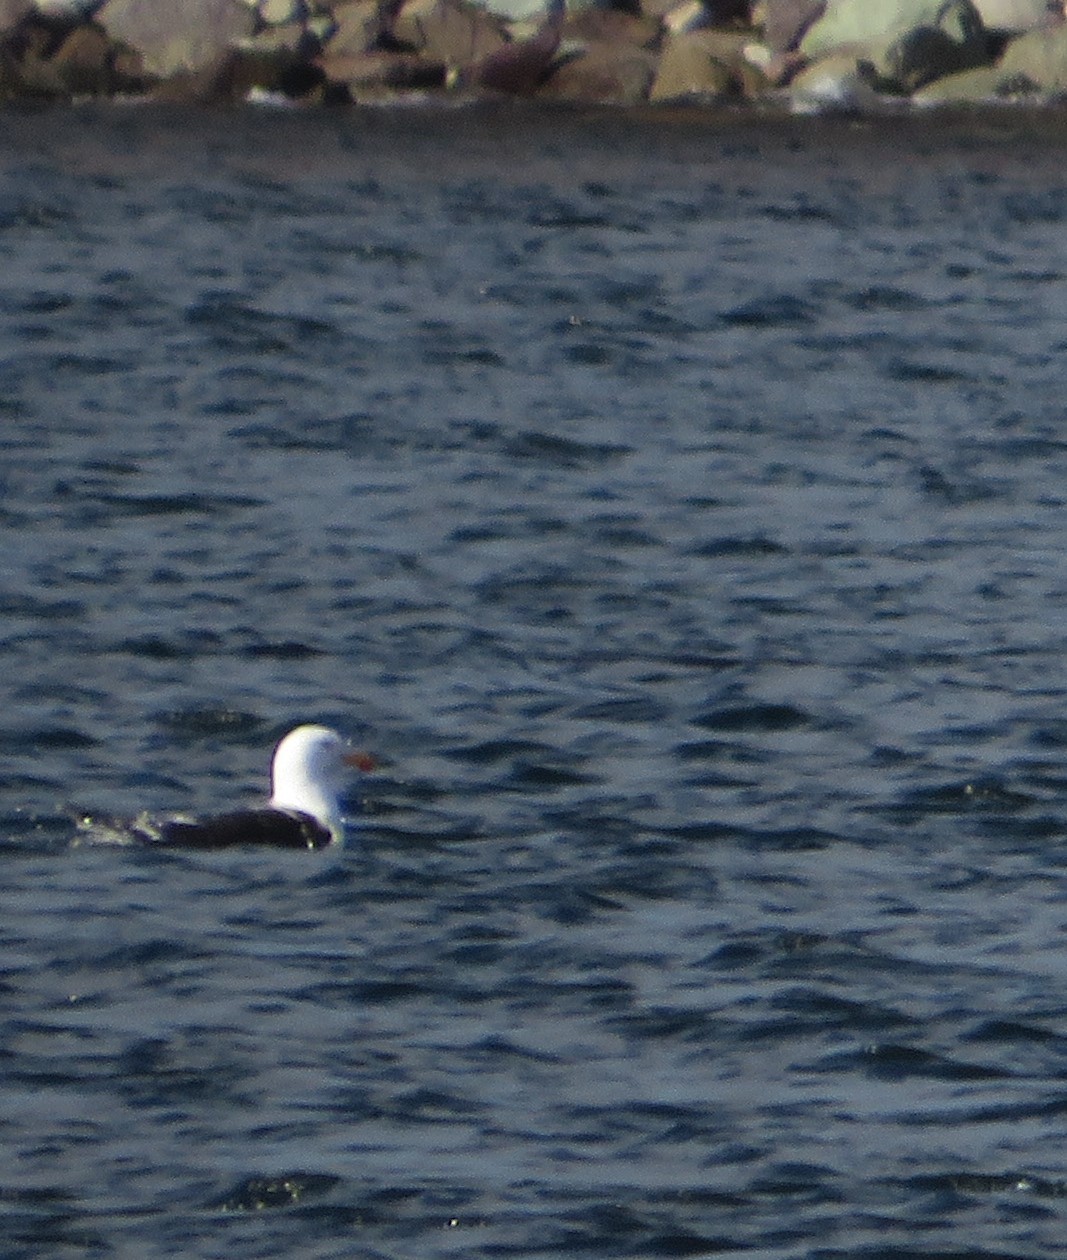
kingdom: Animalia
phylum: Chordata
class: Aves
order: Charadriiformes
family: Laridae
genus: Larus
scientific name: Larus marinus
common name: Great black-backed gull
